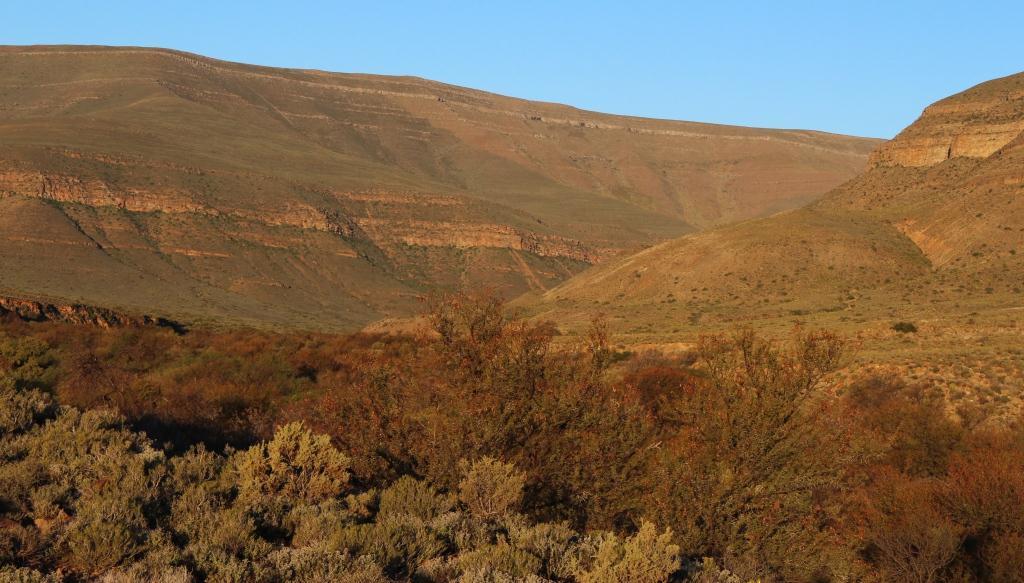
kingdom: Plantae
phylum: Tracheophyta
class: Magnoliopsida
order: Fabales
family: Fabaceae
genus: Vachellia
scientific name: Vachellia karroo
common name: Sweet thorn
